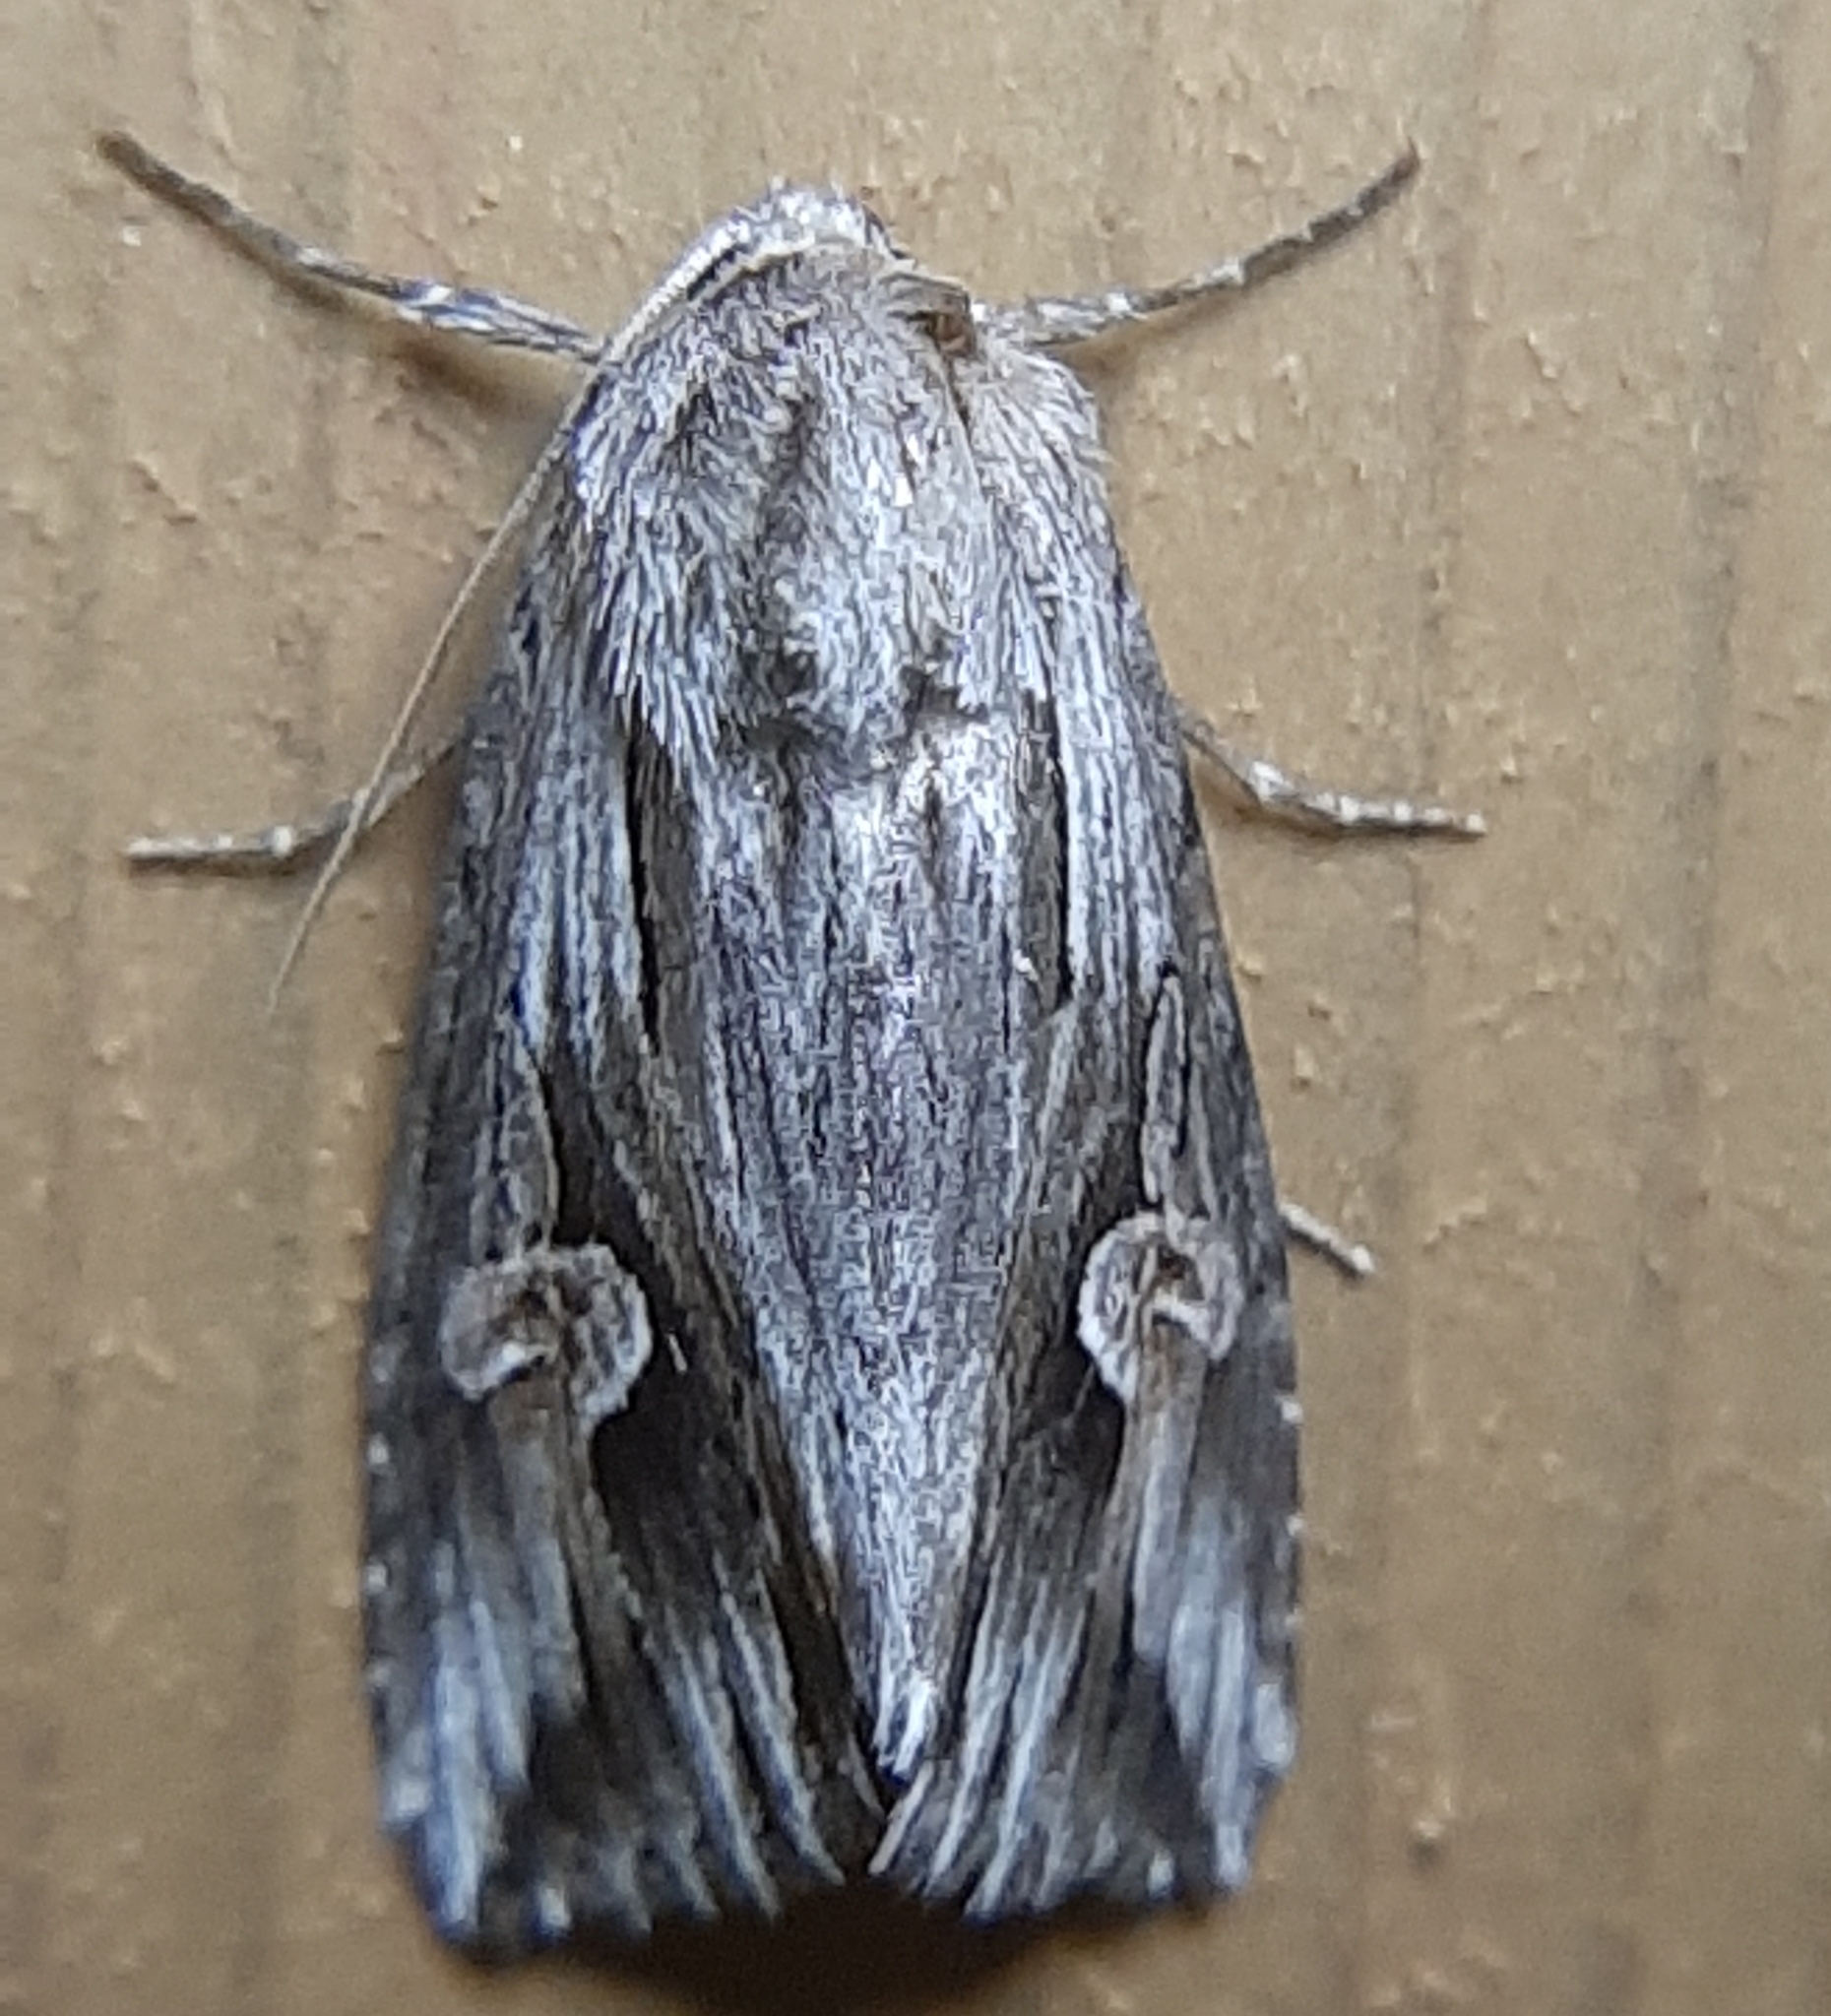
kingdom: Animalia
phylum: Arthropoda
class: Insecta
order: Lepidoptera
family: Noctuidae
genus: Nedra
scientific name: Nedra ramosula
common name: Gray half-spot
